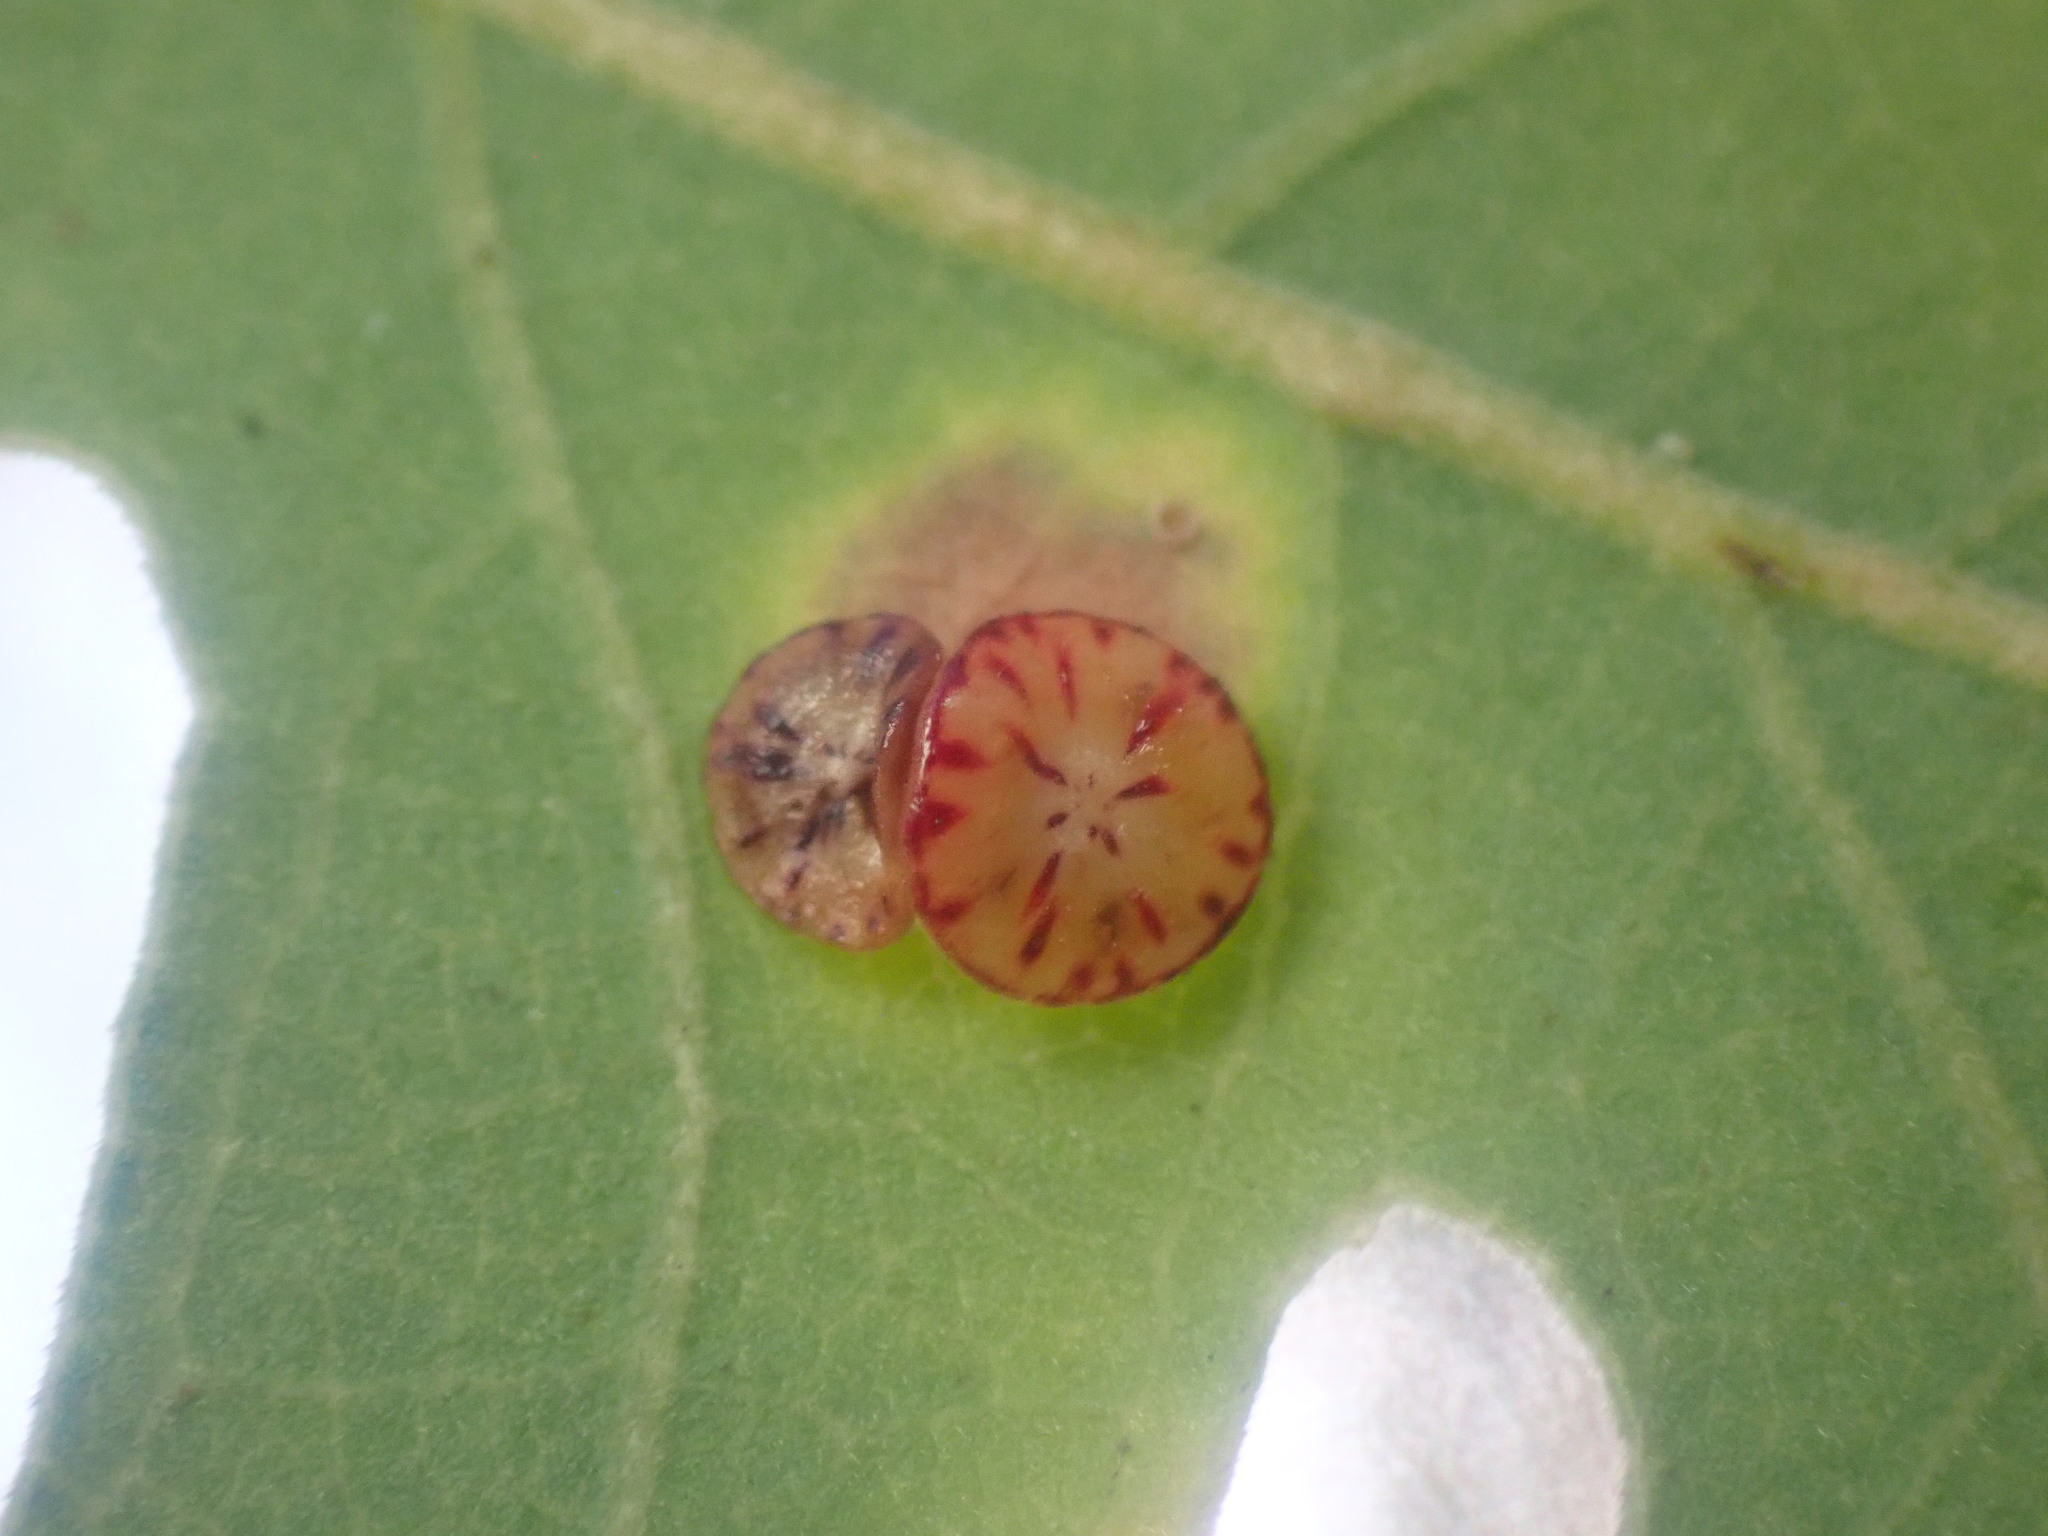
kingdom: Animalia
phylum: Arthropoda
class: Insecta
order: Hymenoptera
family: Cynipidae
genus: Andricus
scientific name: Andricus
